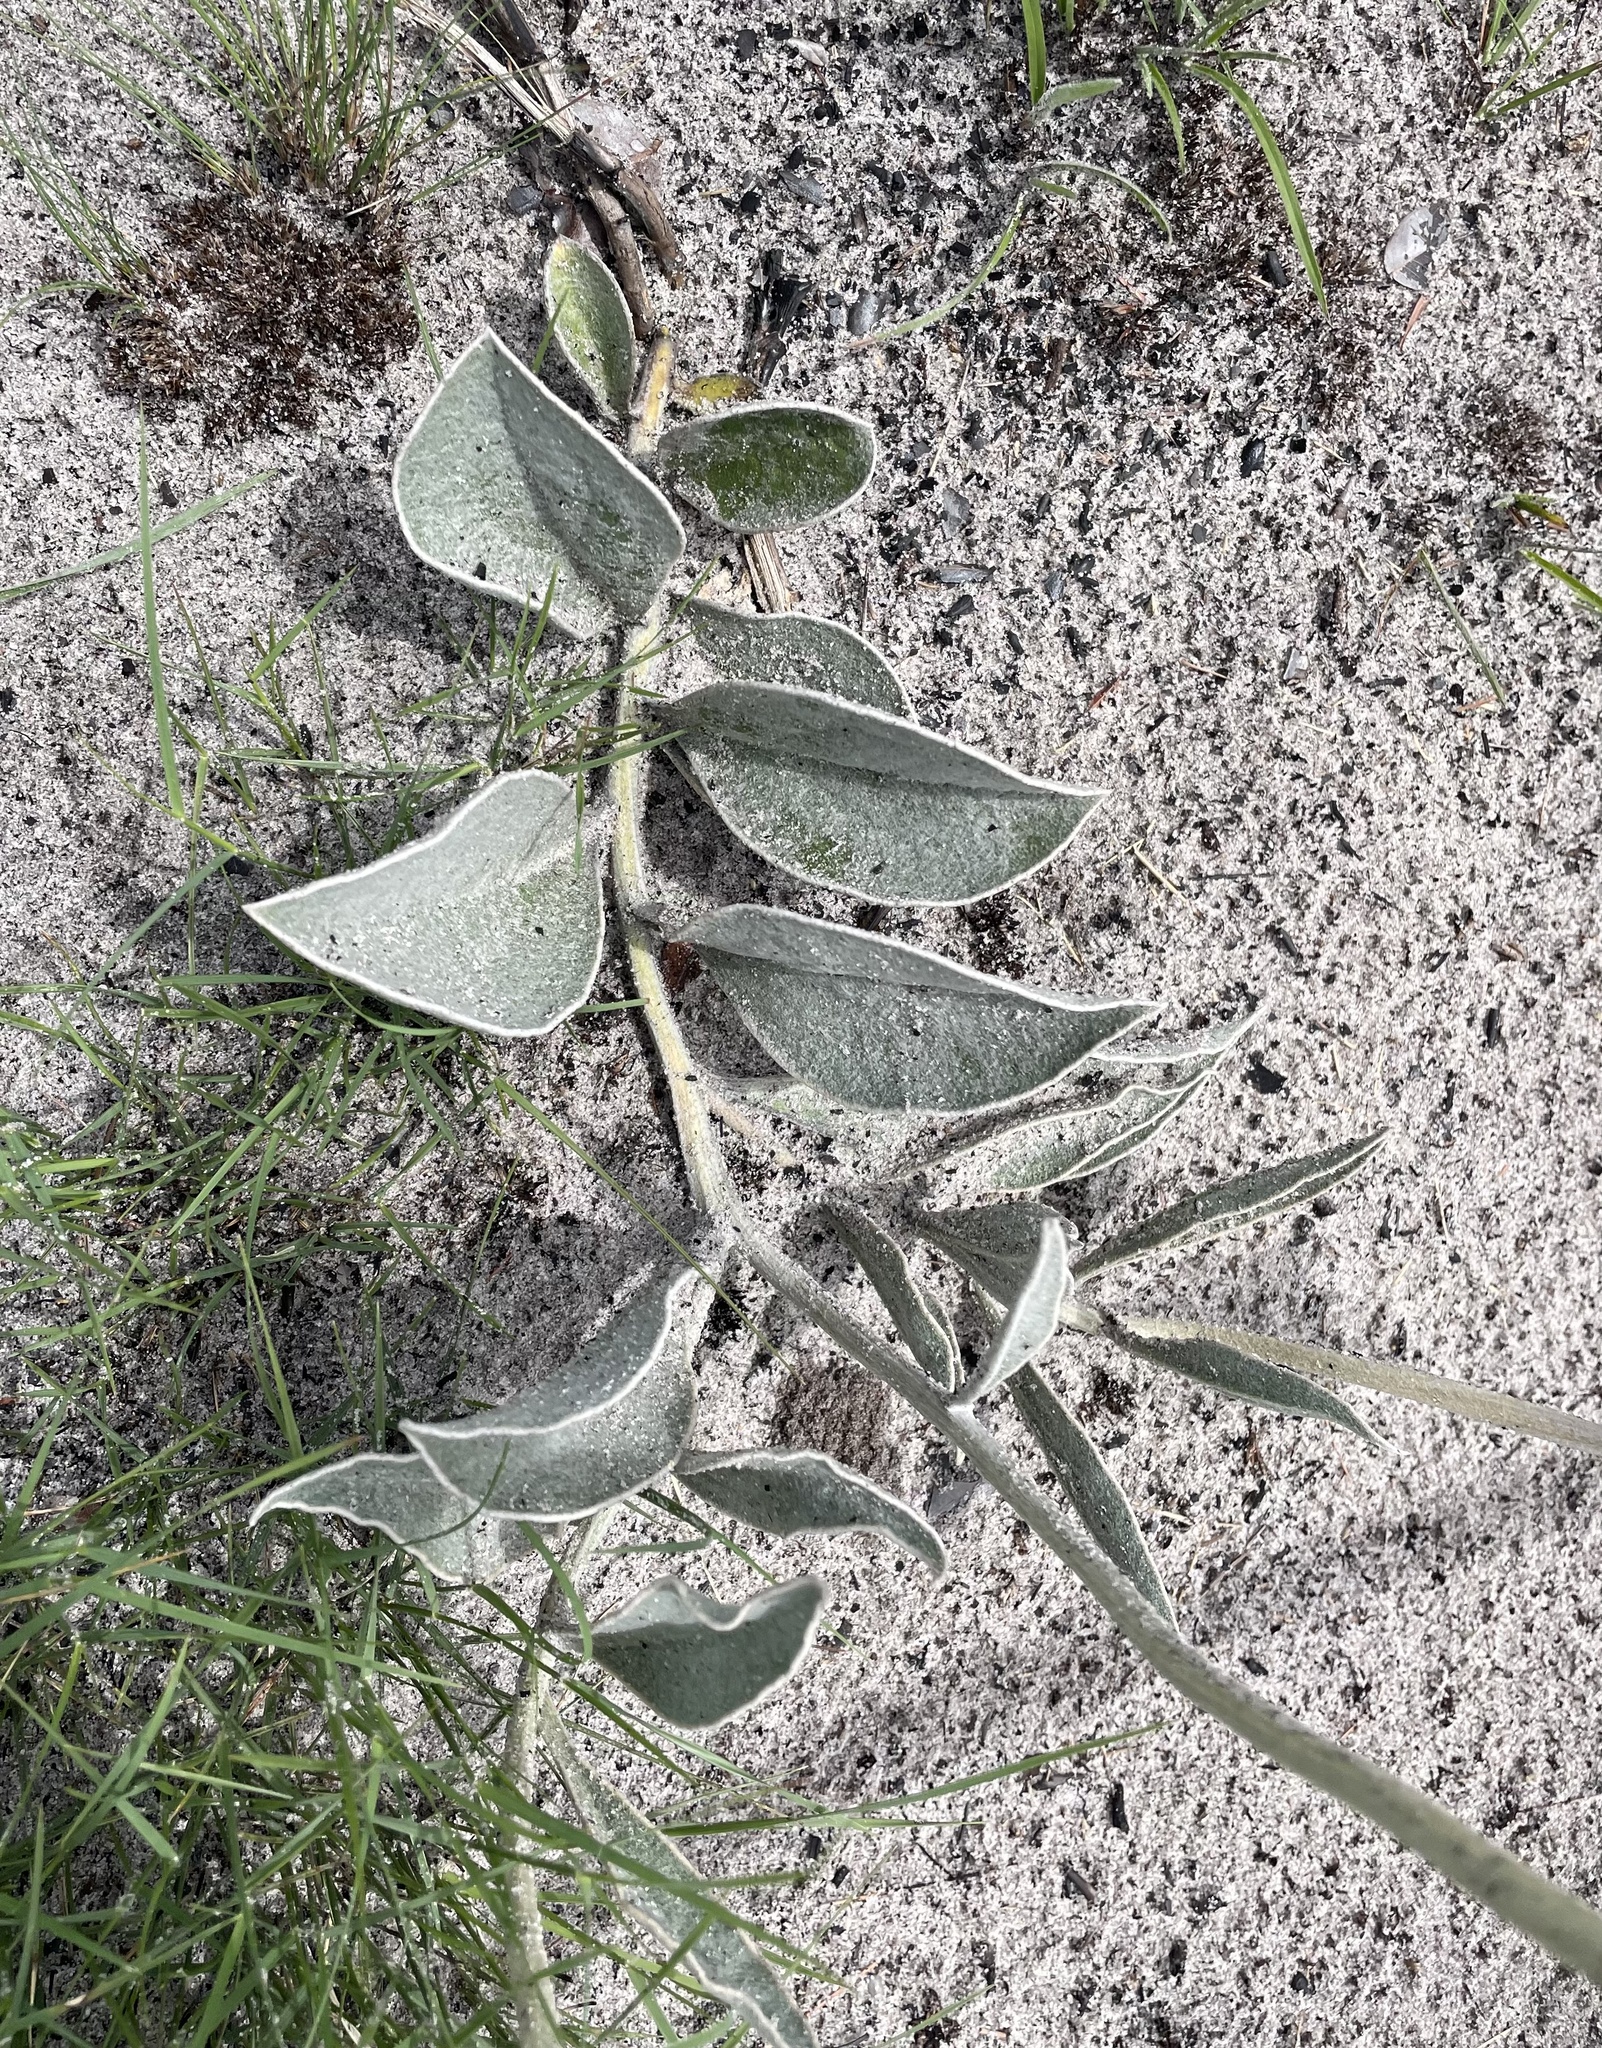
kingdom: Plantae
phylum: Tracheophyta
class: Magnoliopsida
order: Asterales
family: Asteraceae
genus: Pasaccardoa
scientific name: Pasaccardoa baumii
